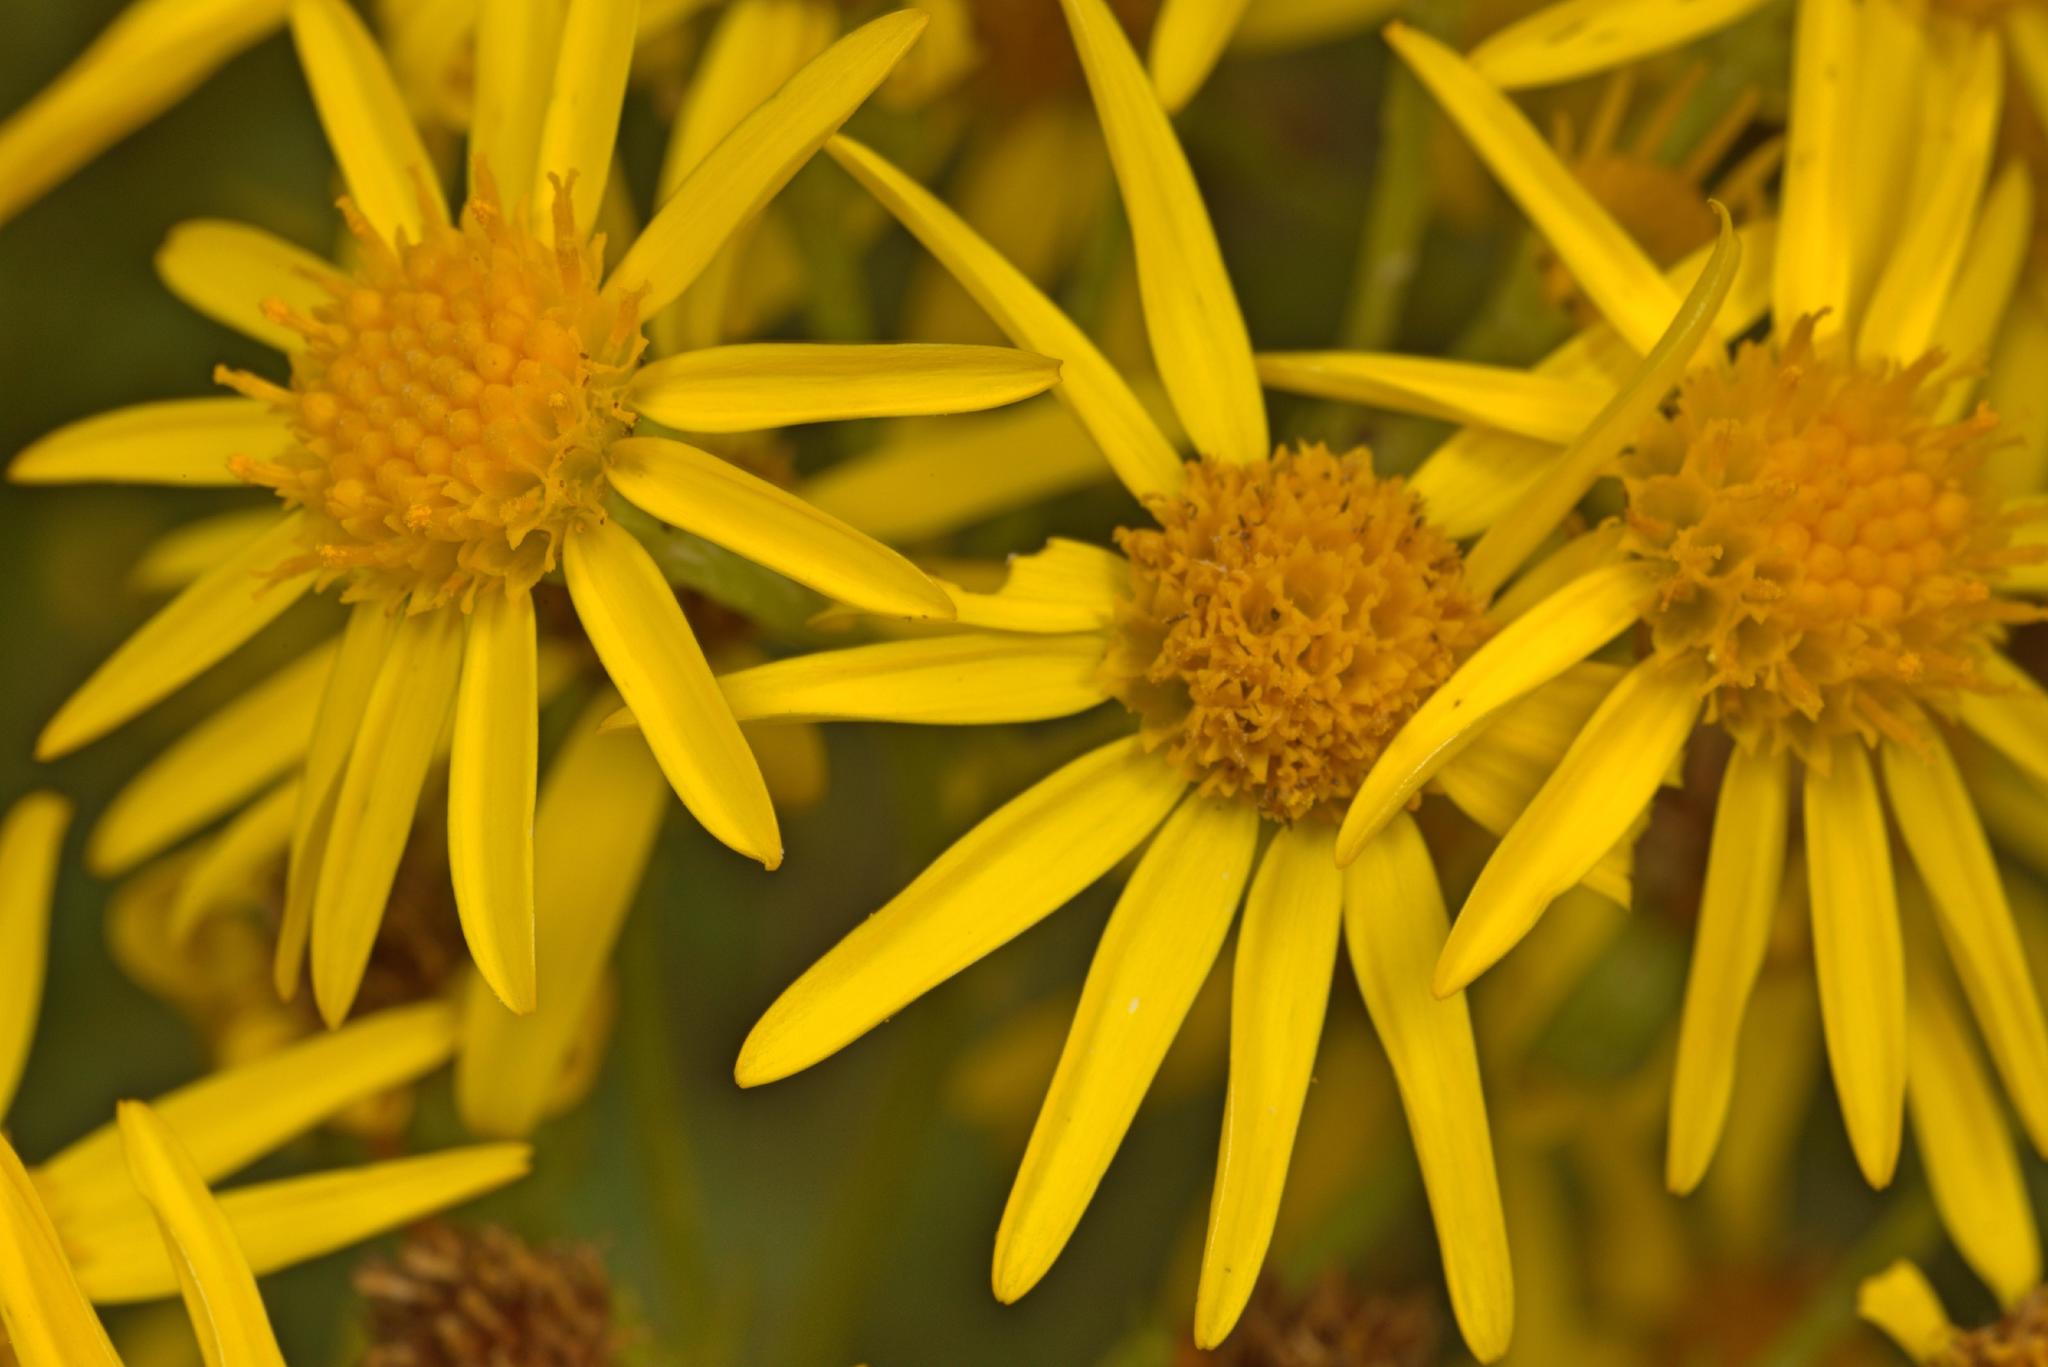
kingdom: Plantae
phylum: Tracheophyta
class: Magnoliopsida
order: Asterales
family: Asteraceae
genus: Jacobaea
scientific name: Jacobaea vulgaris
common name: Stinking willie
